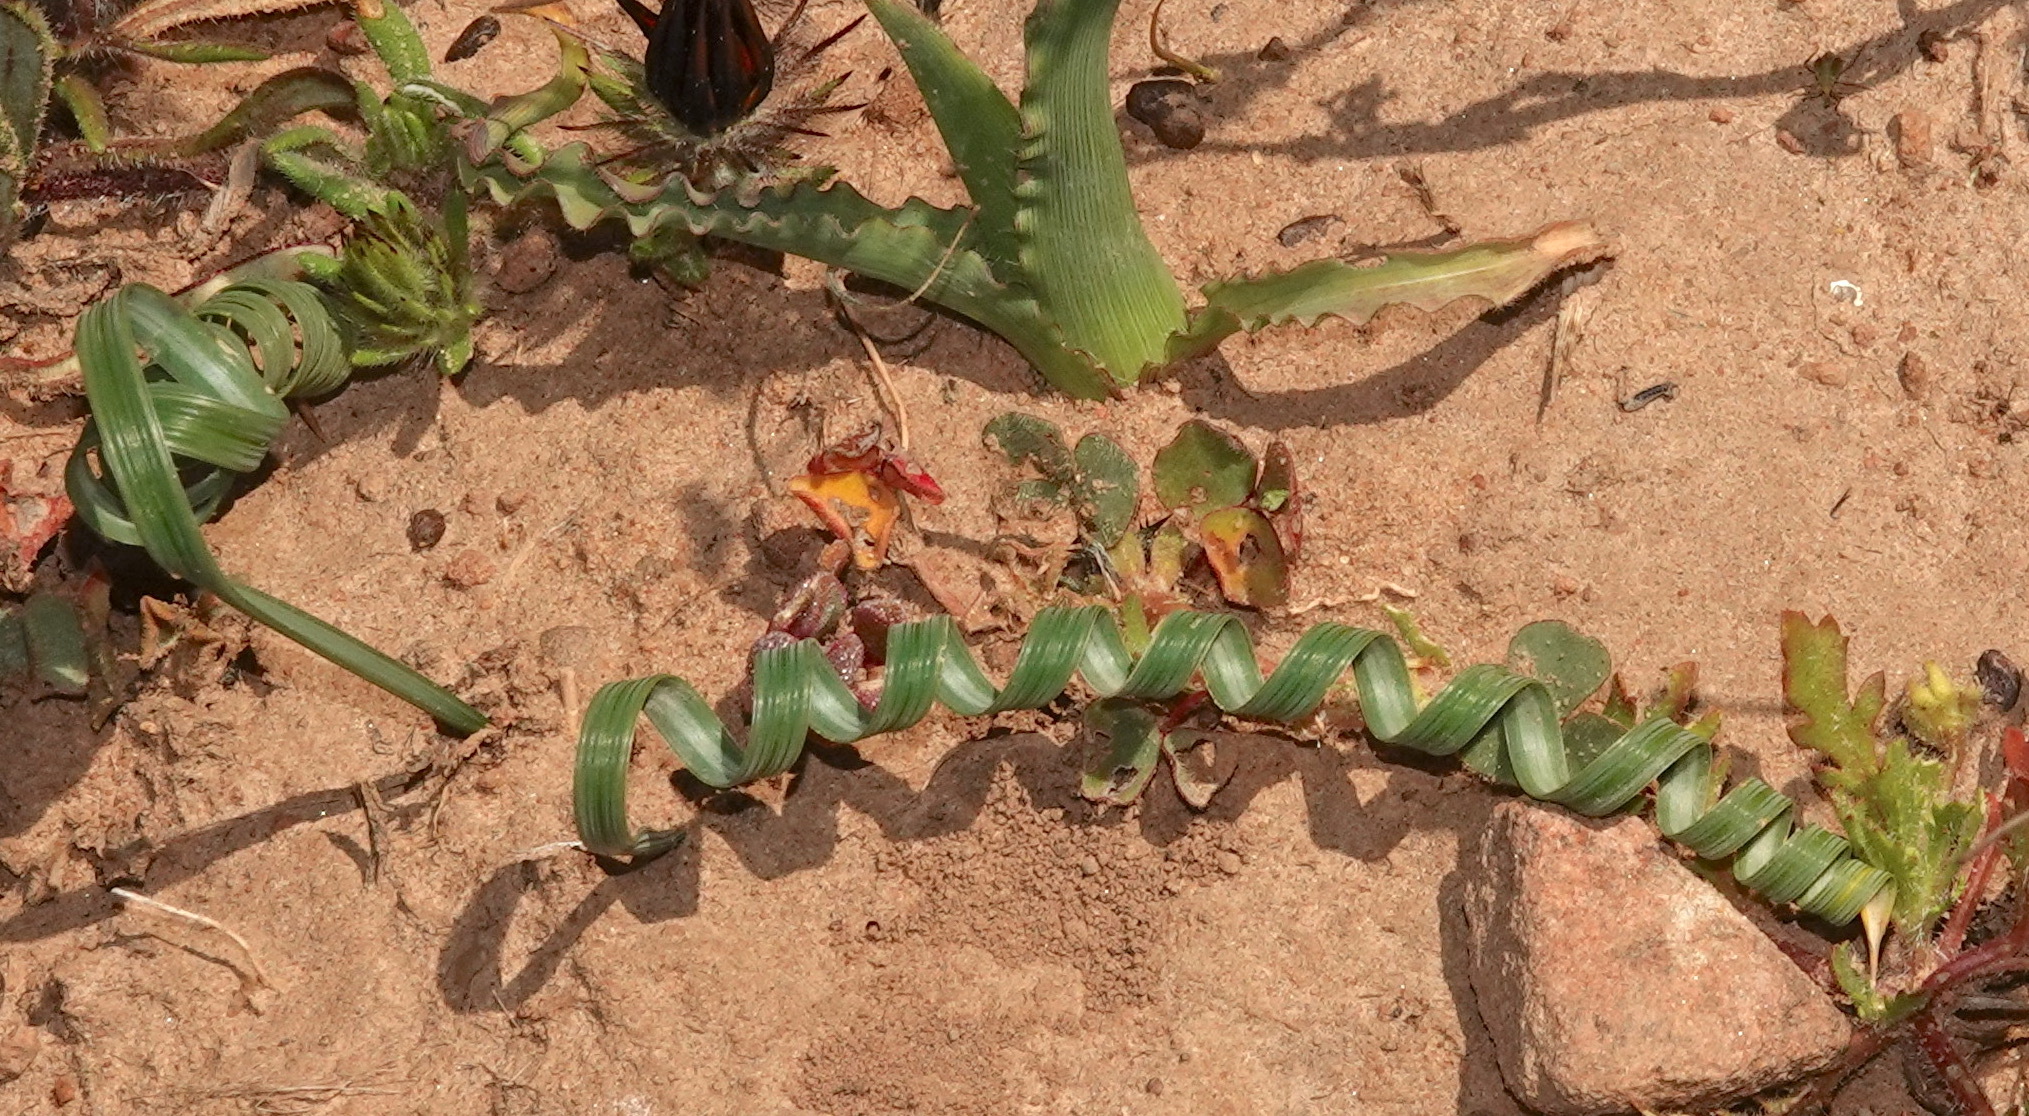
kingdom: Plantae
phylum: Tracheophyta
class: Liliopsida
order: Asparagales
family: Iridaceae
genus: Moraea
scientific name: Moraea pritzeliana
